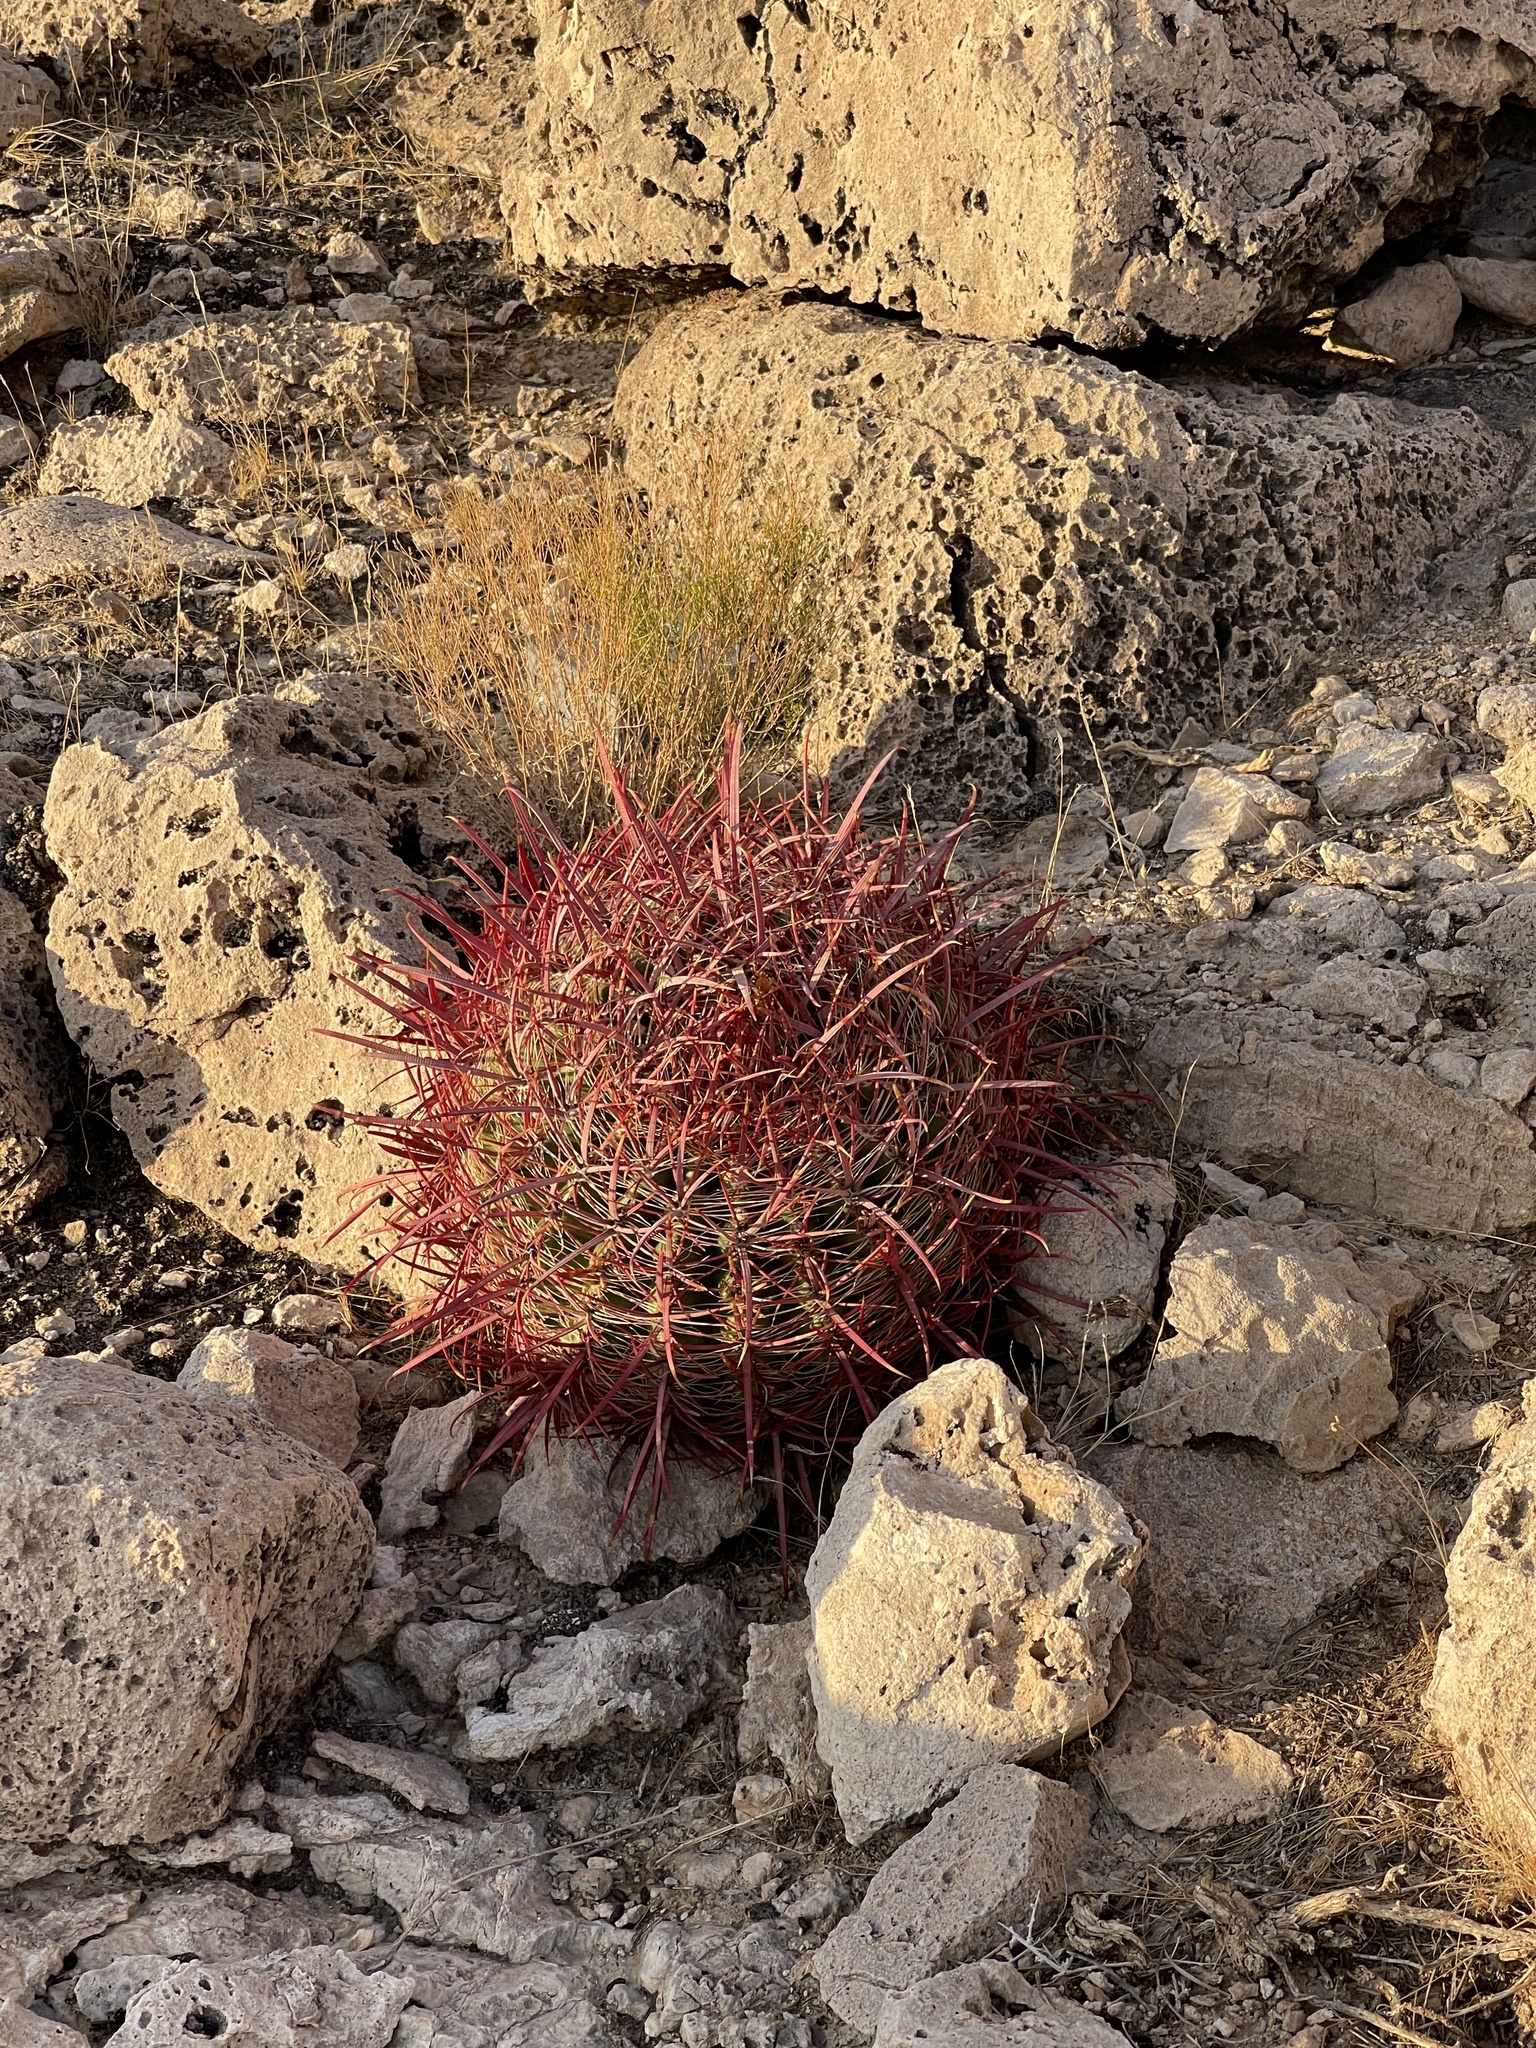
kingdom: Plantae
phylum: Tracheophyta
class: Magnoliopsida
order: Caryophyllales
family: Cactaceae
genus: Ferocactus
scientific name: Ferocactus cylindraceus
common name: California barrel cactus
